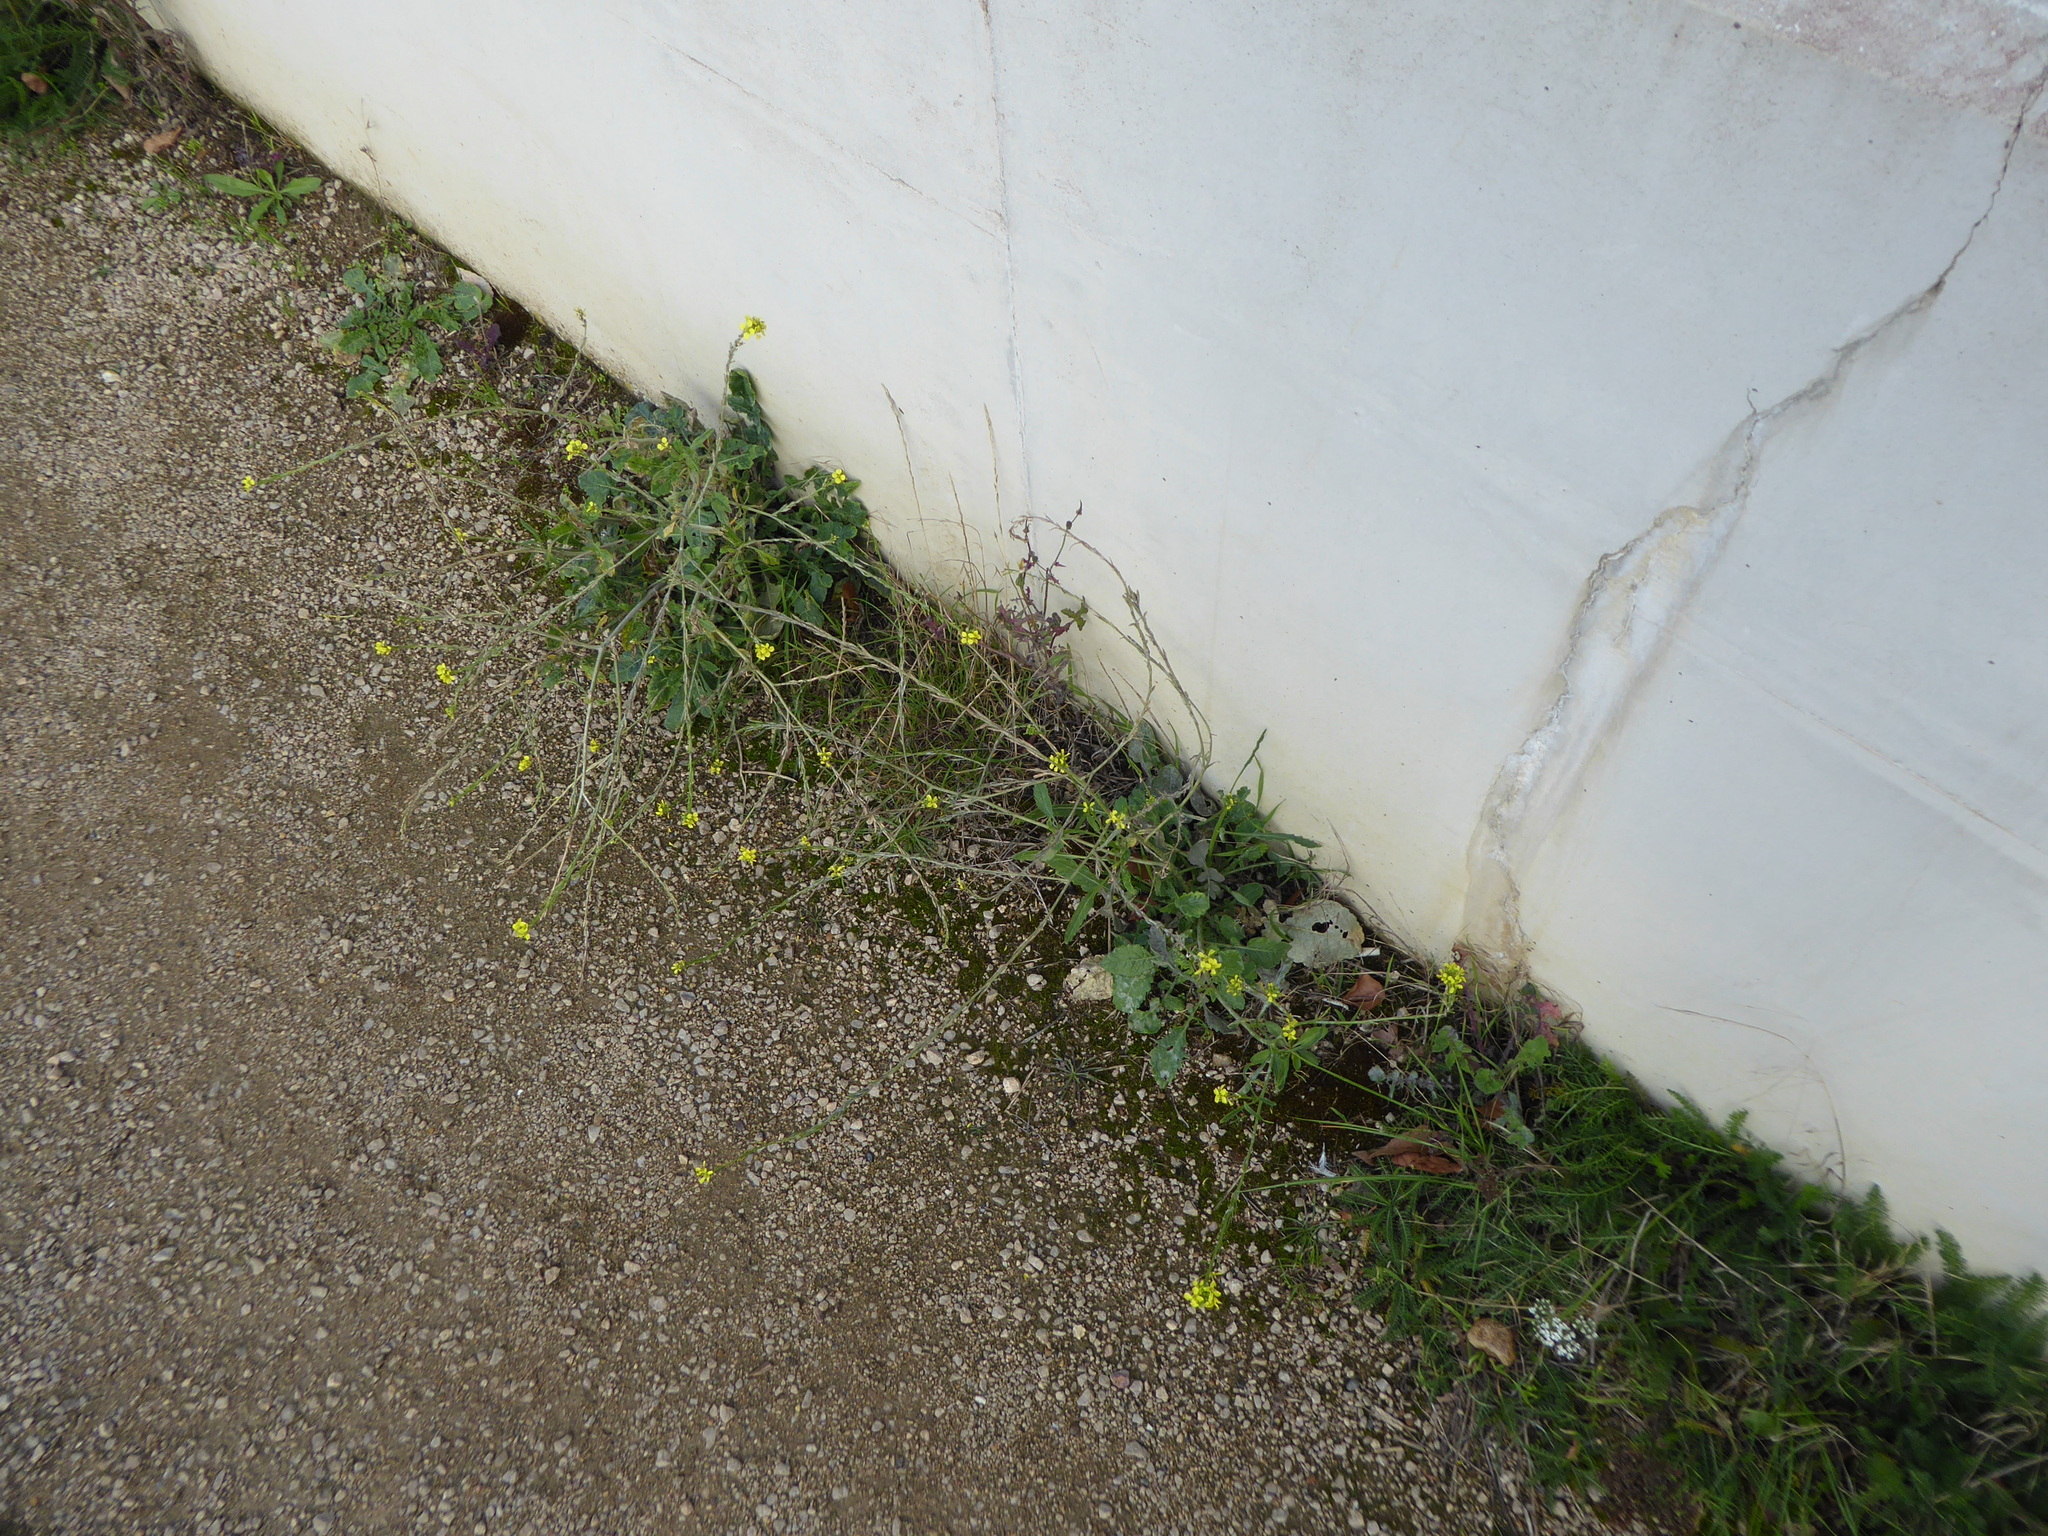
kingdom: Plantae
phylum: Tracheophyta
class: Magnoliopsida
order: Brassicales
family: Brassicaceae
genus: Hirschfeldia
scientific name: Hirschfeldia incana
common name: Hoary mustard
